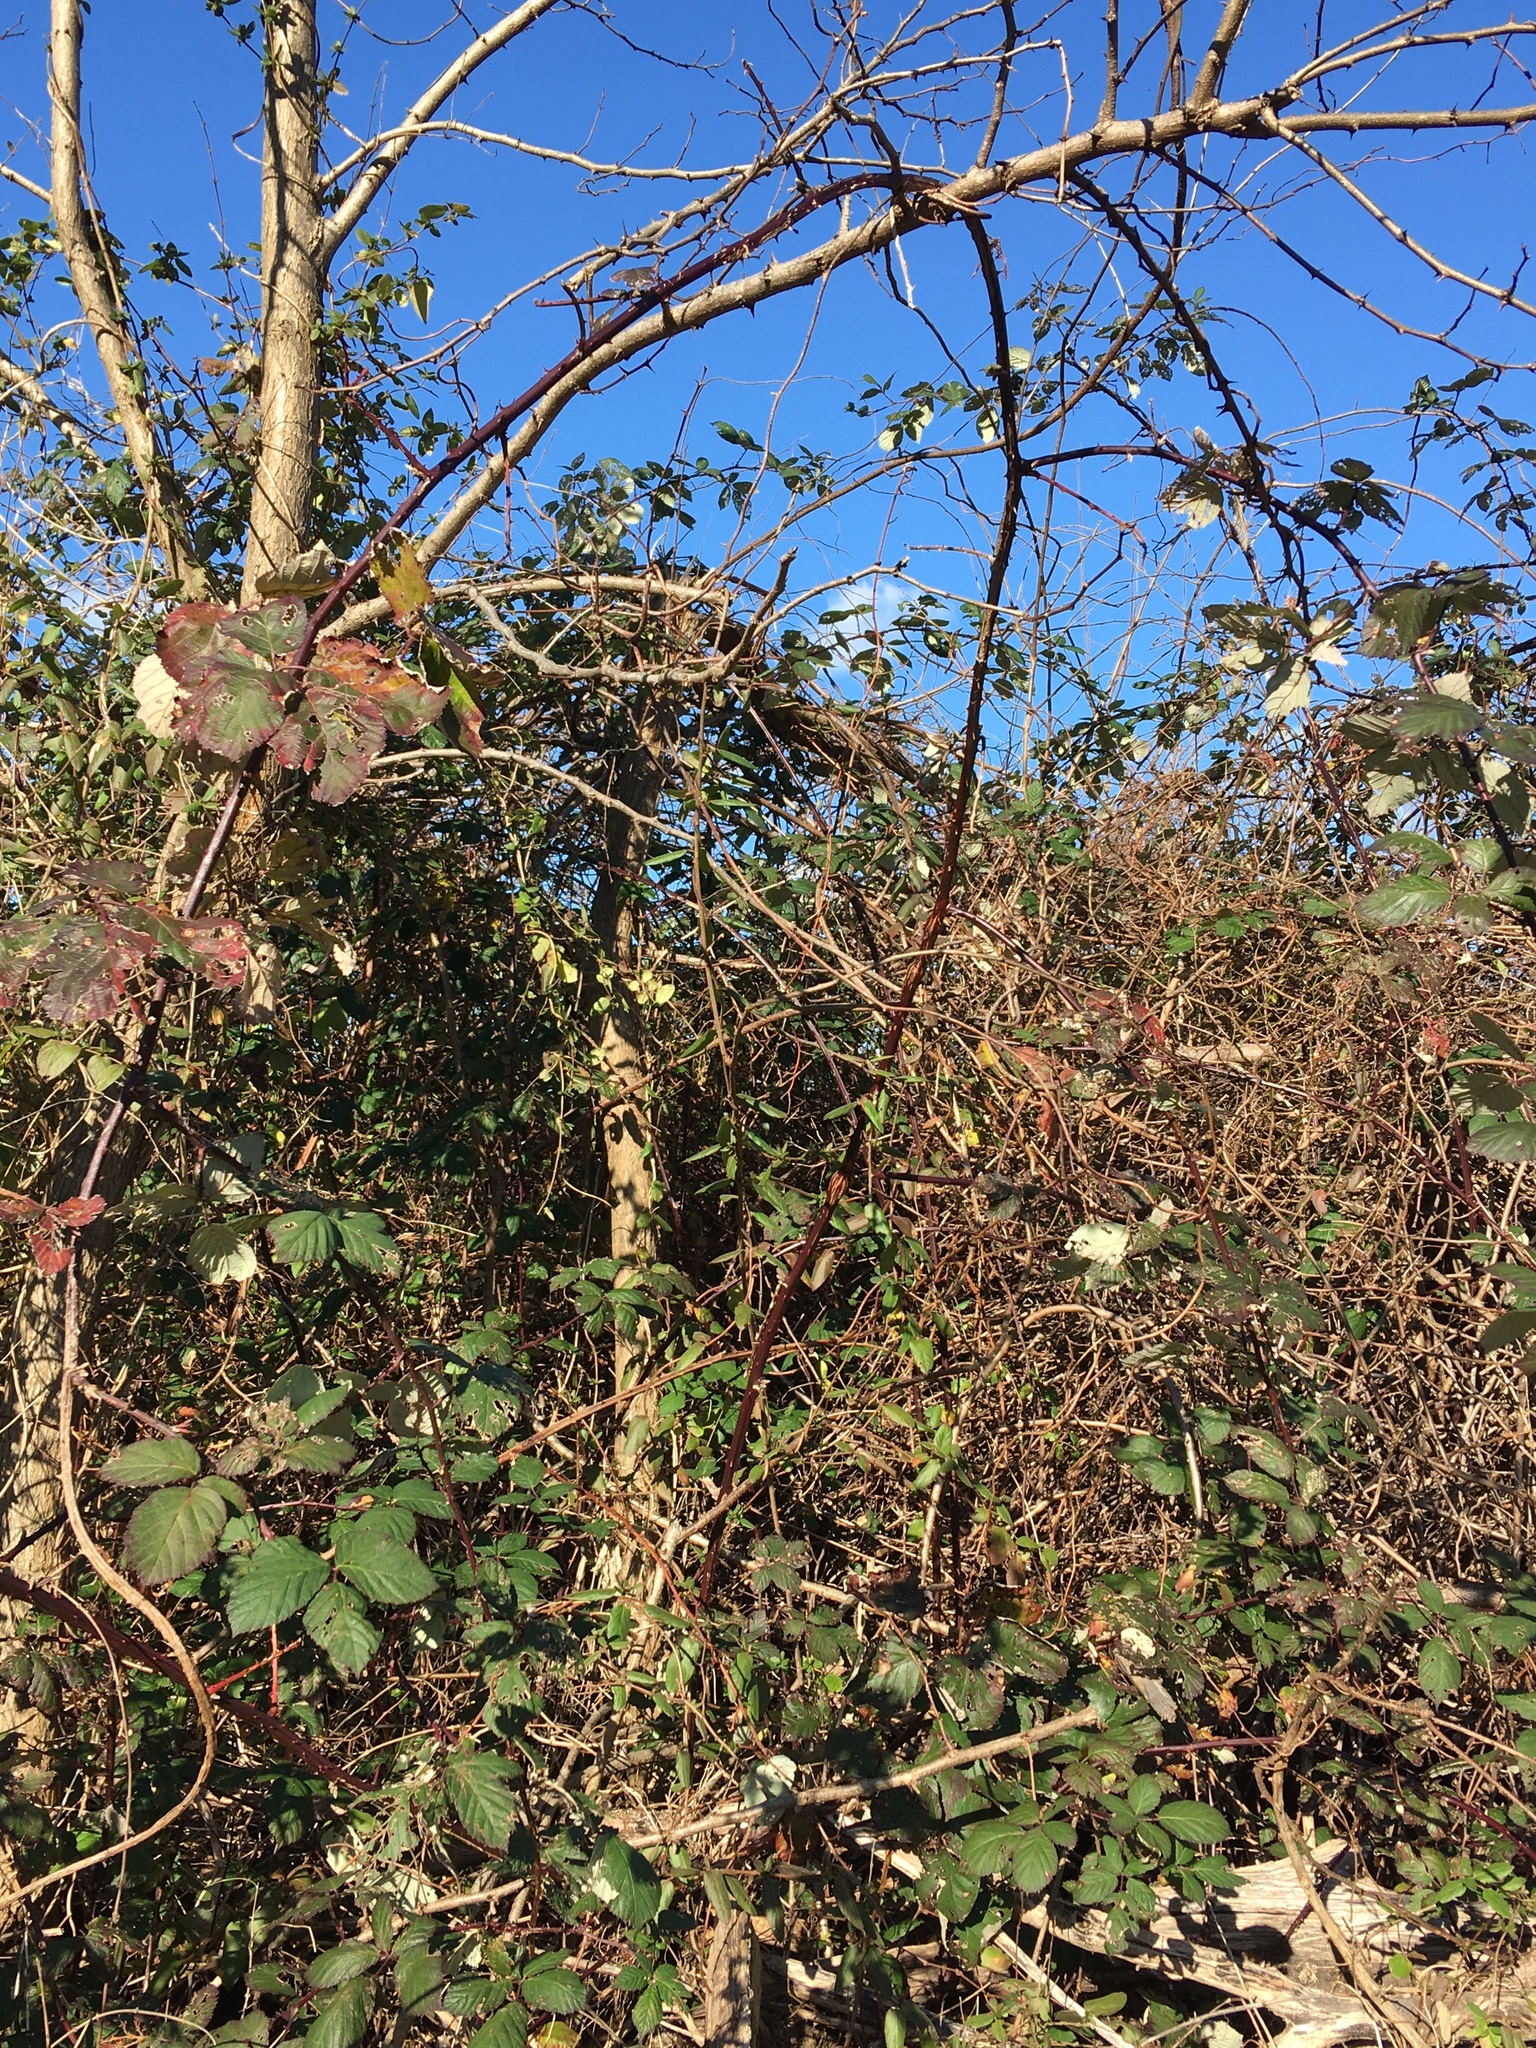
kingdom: Plantae
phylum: Tracheophyta
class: Magnoliopsida
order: Rosales
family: Rosaceae
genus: Rubus
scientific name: Rubus bifrons
